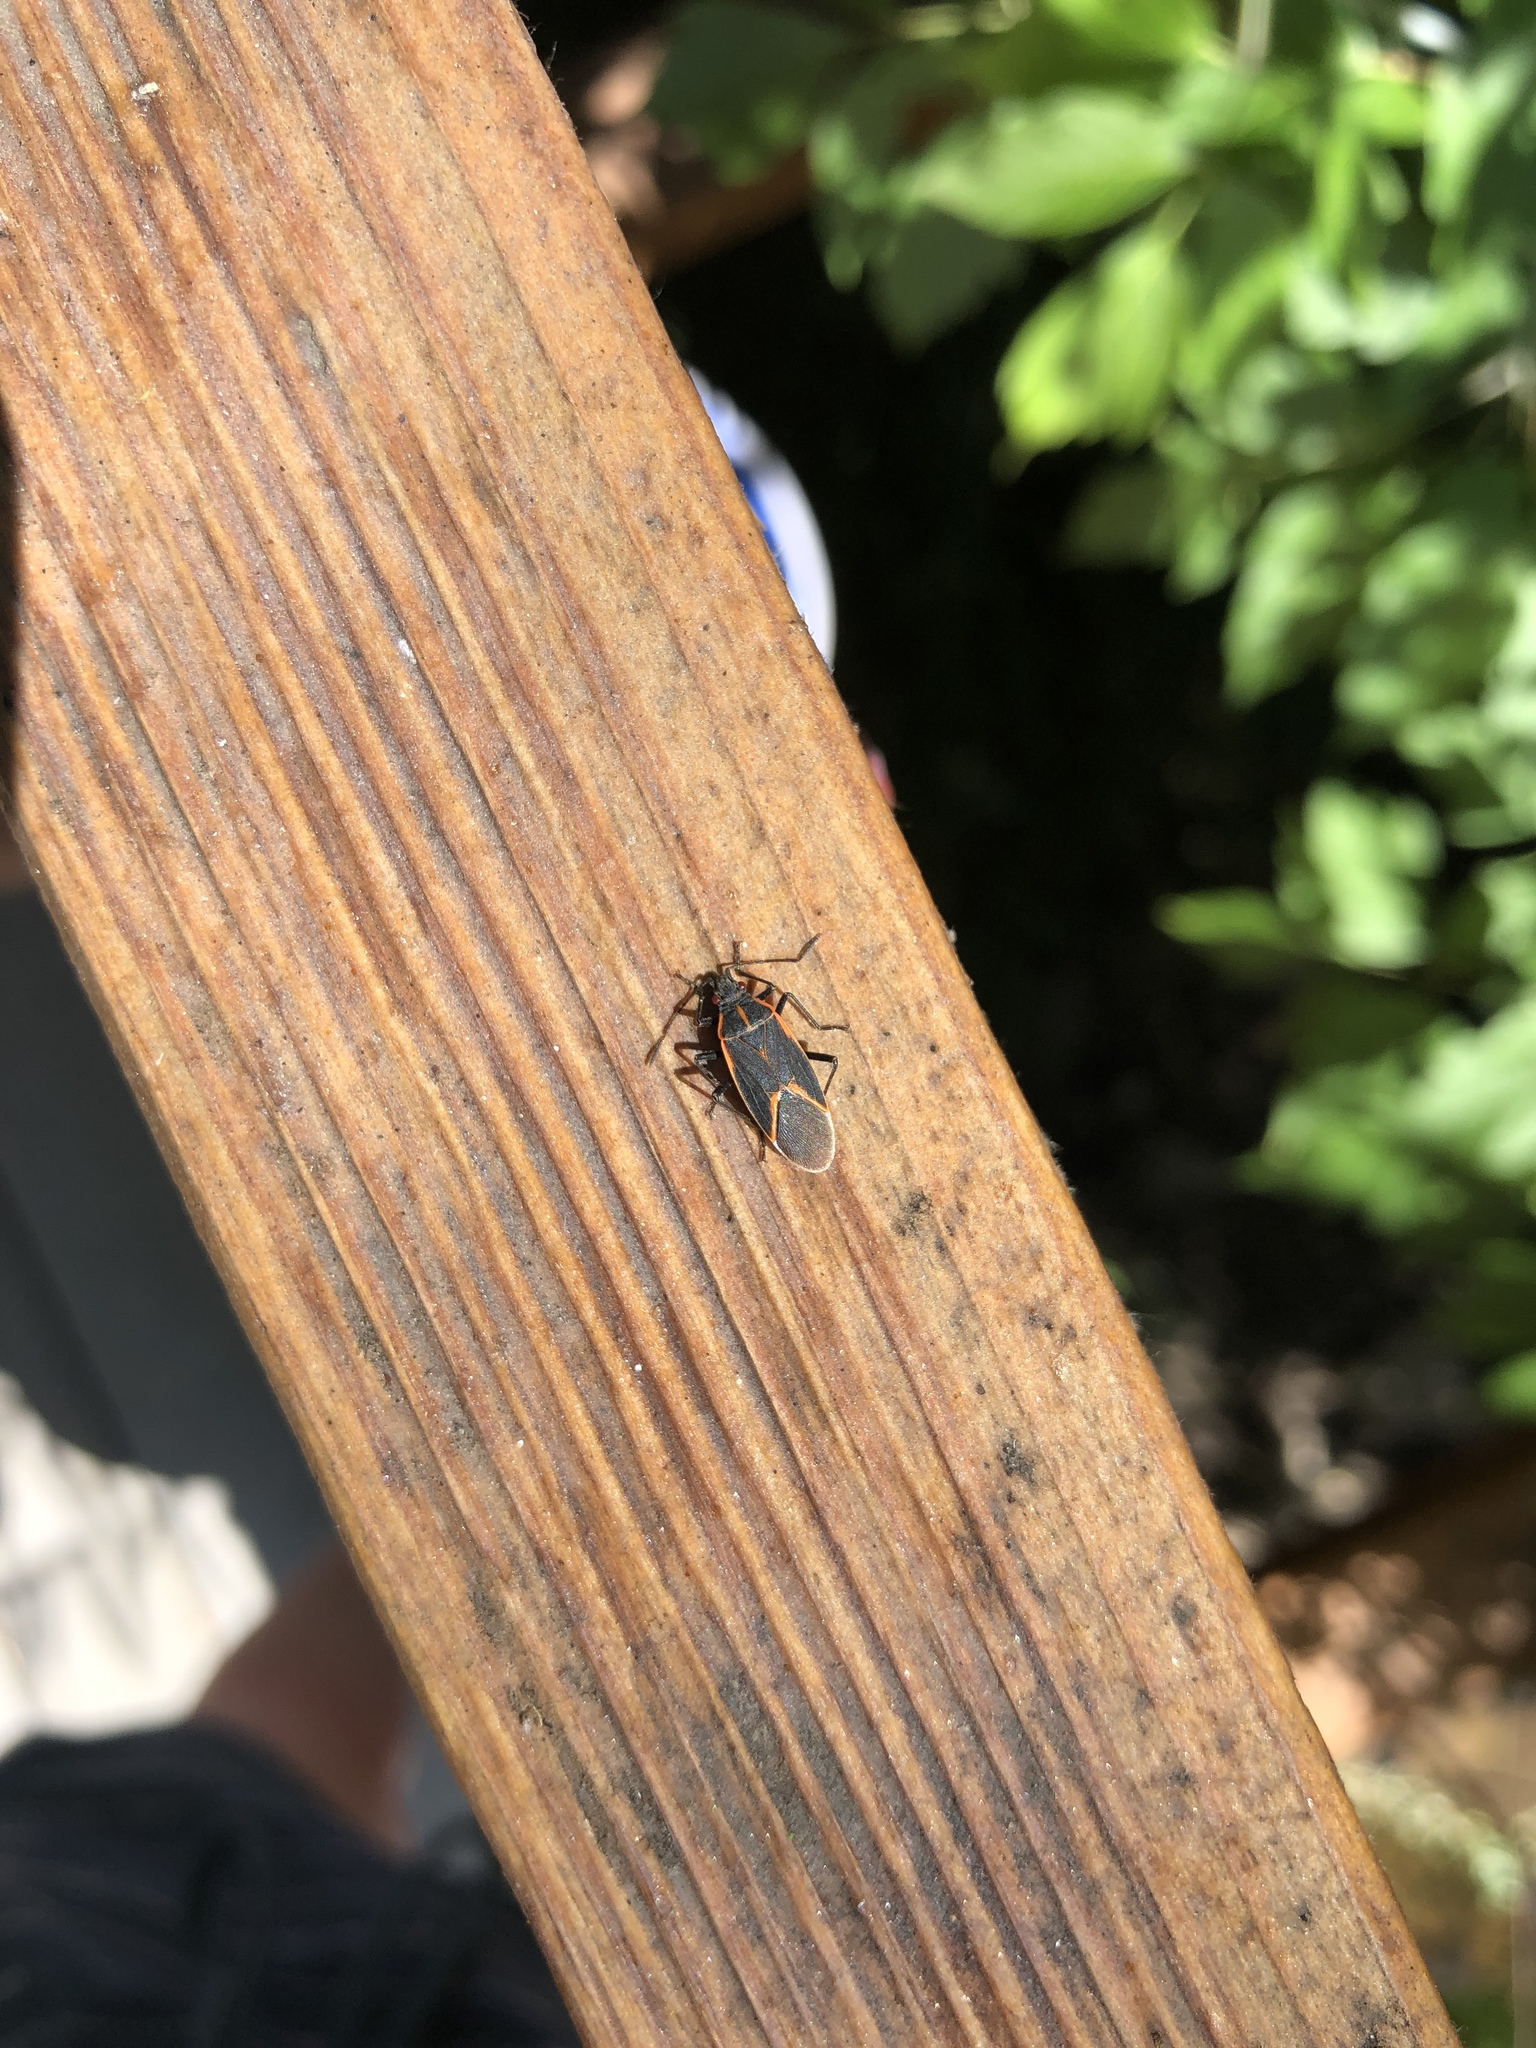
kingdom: Animalia
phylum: Arthropoda
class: Insecta
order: Hemiptera
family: Rhopalidae
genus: Boisea
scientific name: Boisea trivittata
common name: Boxelder bug
